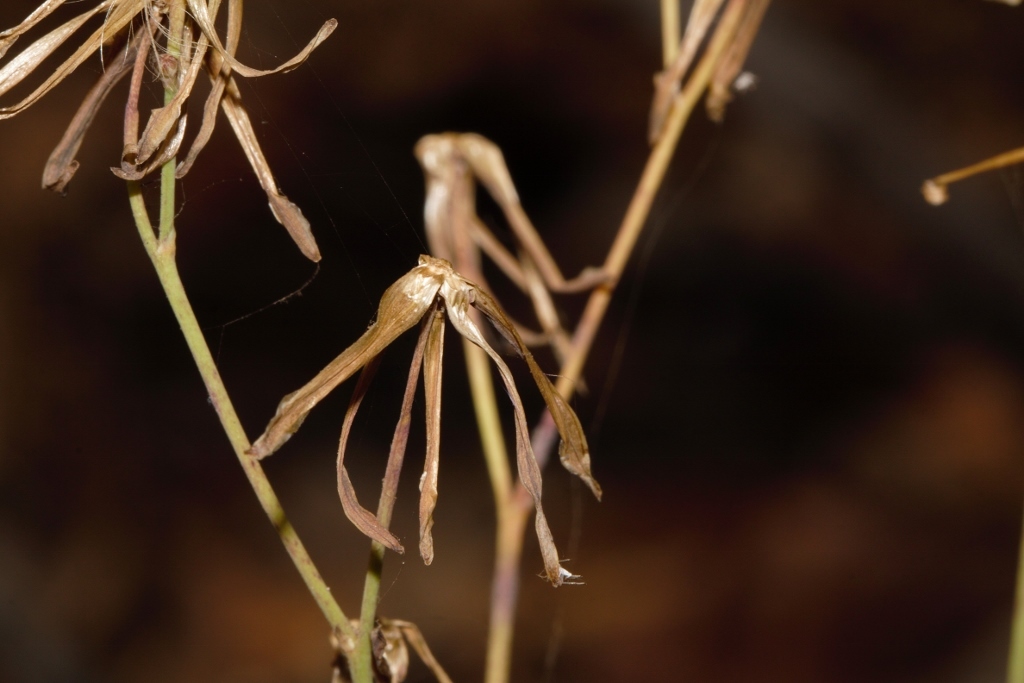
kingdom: Plantae
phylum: Tracheophyta
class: Magnoliopsida
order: Asterales
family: Asteraceae
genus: Launaea
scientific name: Launaea rarifolia
